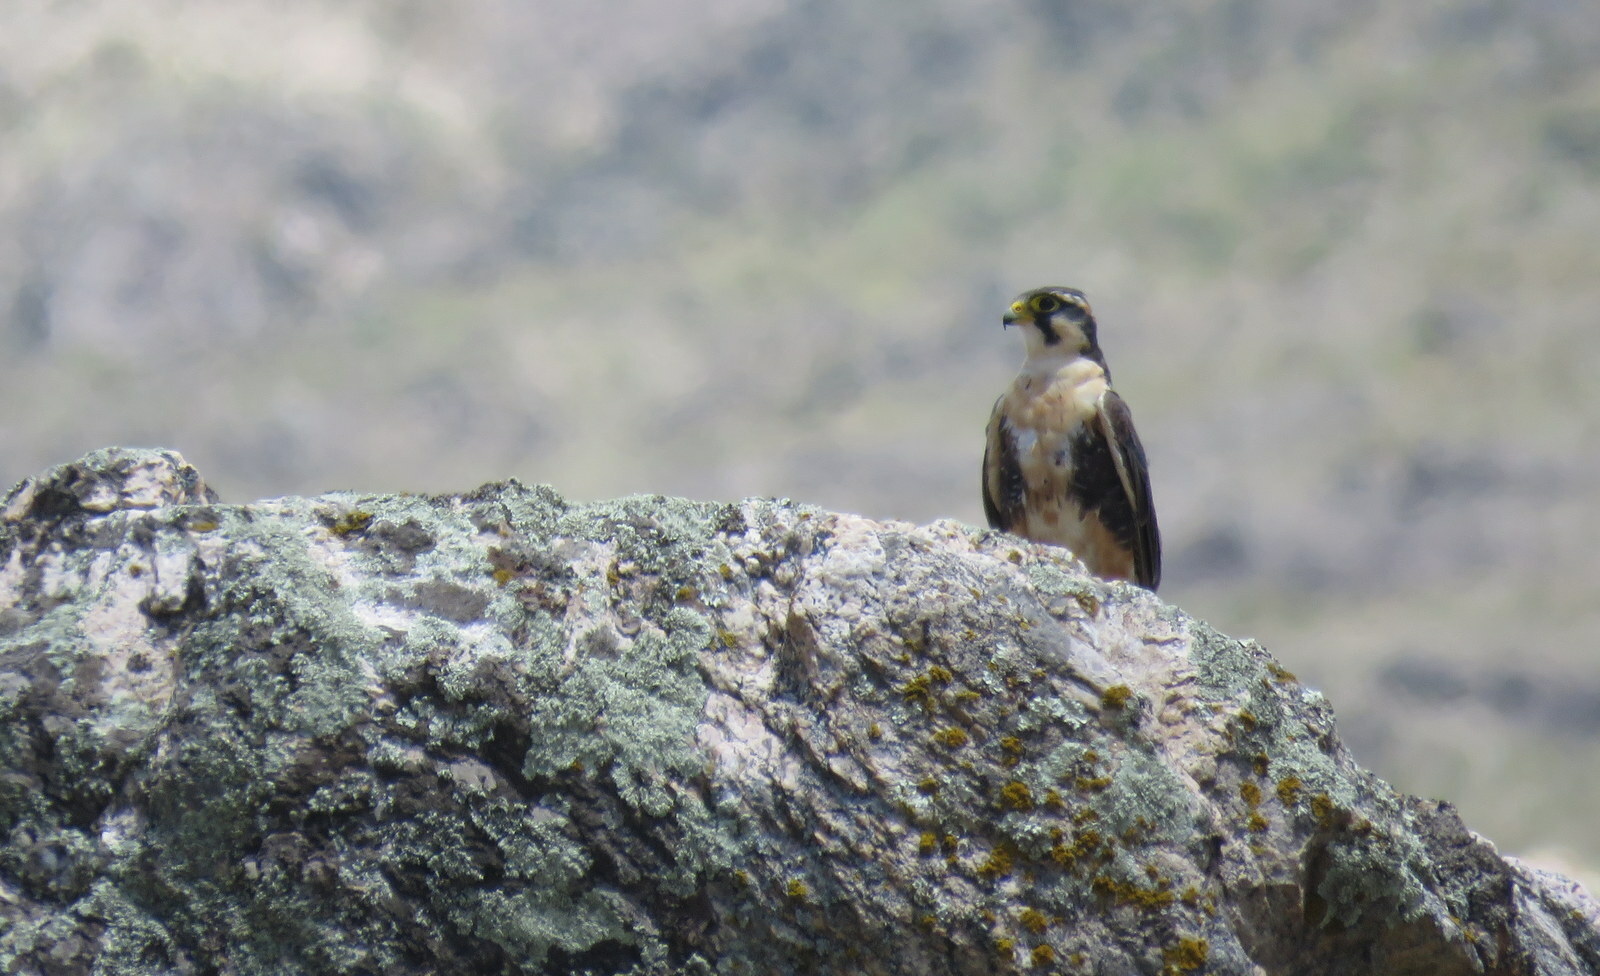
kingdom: Animalia
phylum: Chordata
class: Aves
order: Falconiformes
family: Falconidae
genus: Falco
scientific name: Falco femoralis
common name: Aplomado falcon
